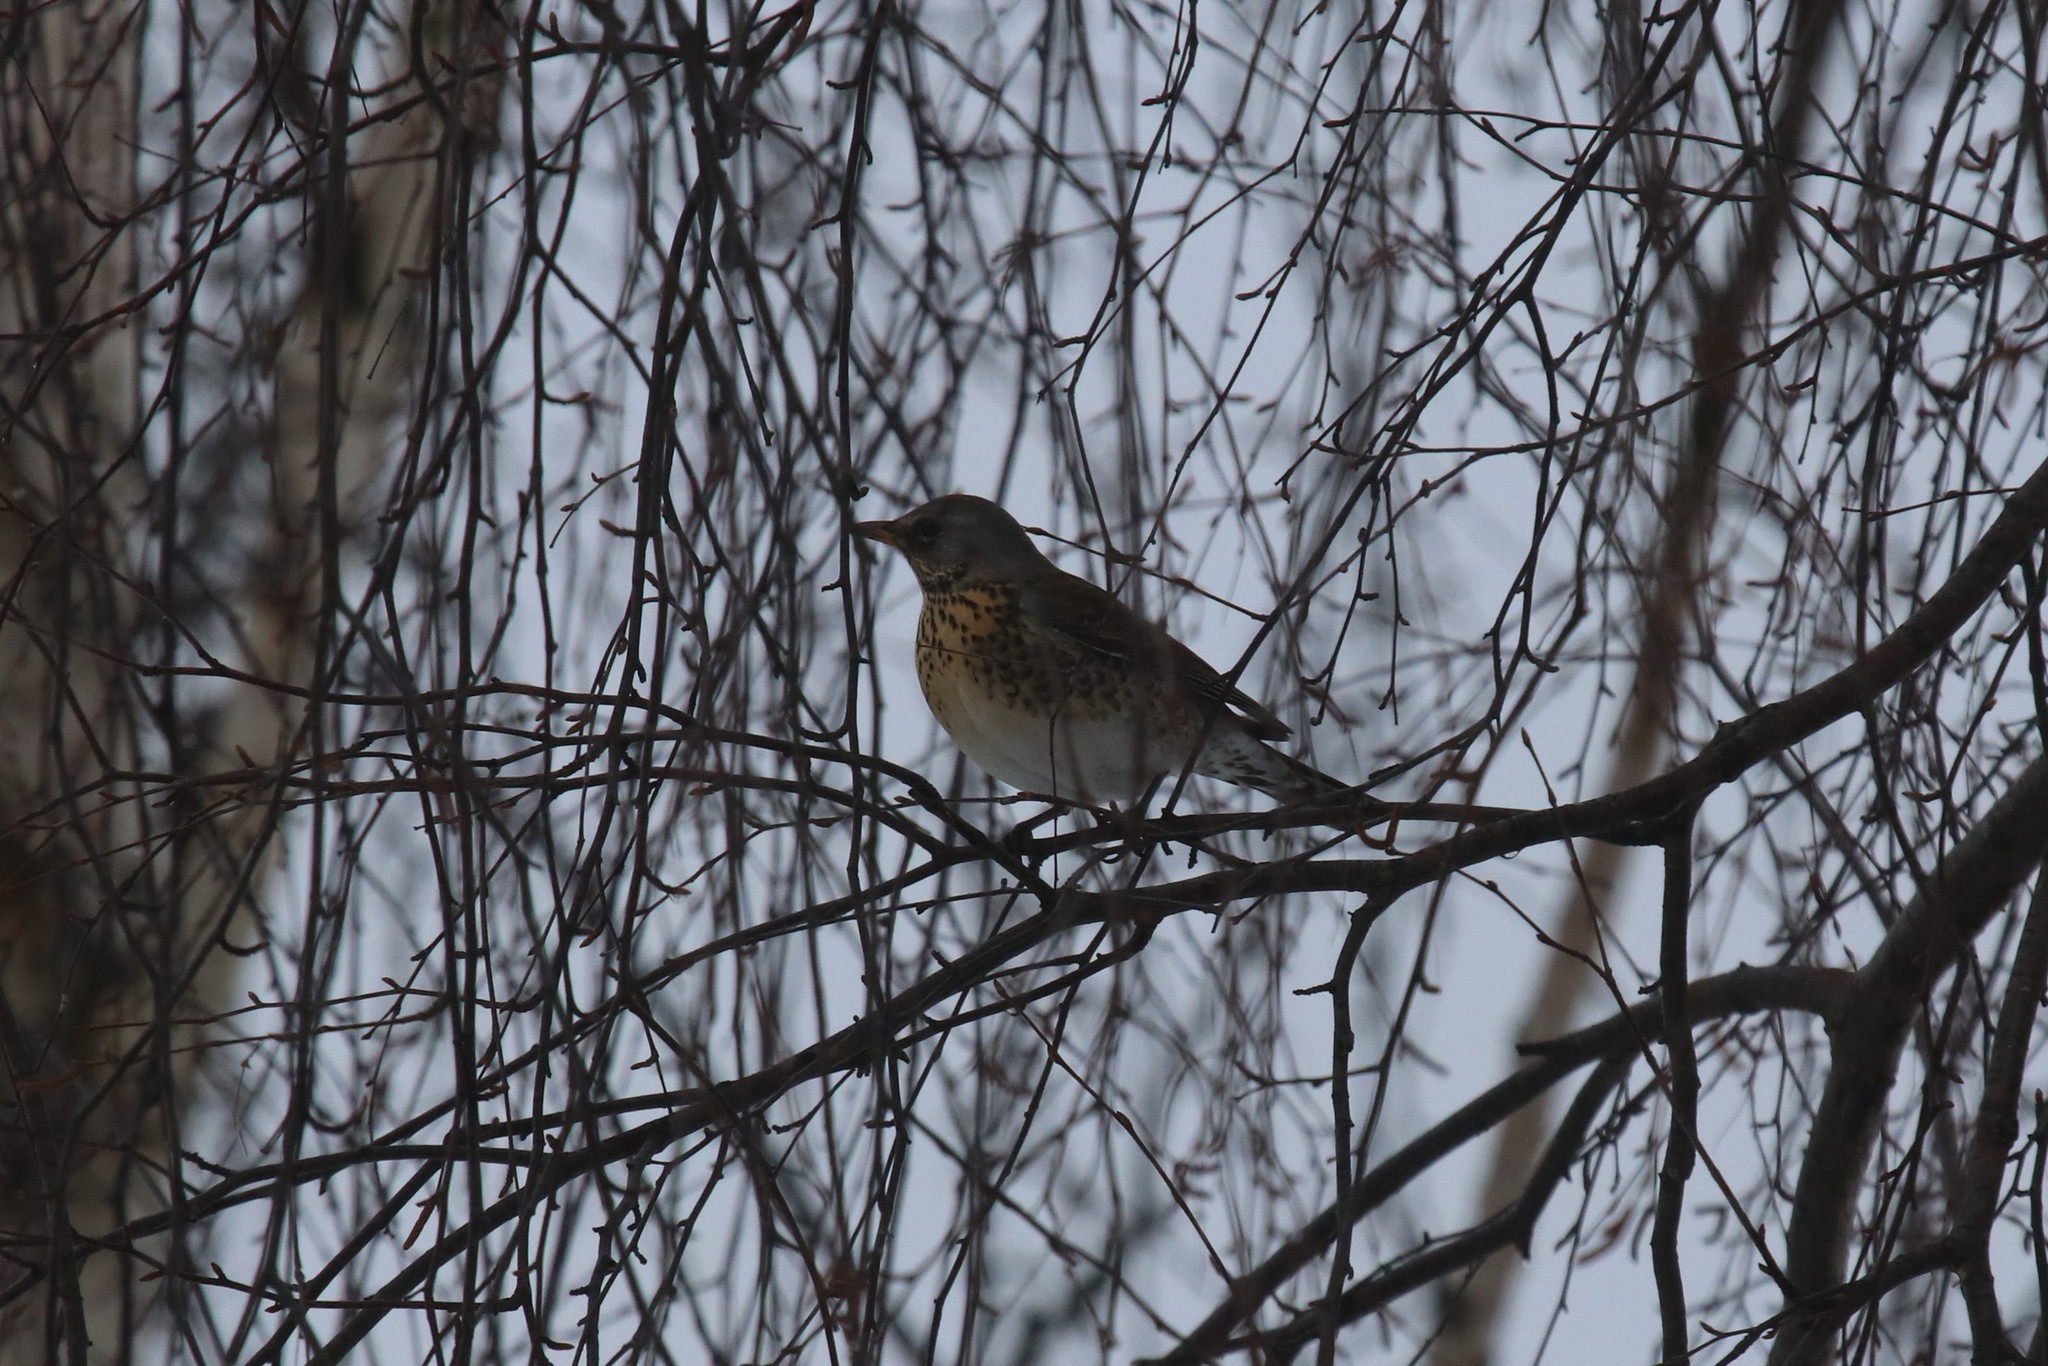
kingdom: Animalia
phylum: Chordata
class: Aves
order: Passeriformes
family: Turdidae
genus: Turdus
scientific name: Turdus pilaris
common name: Fieldfare
